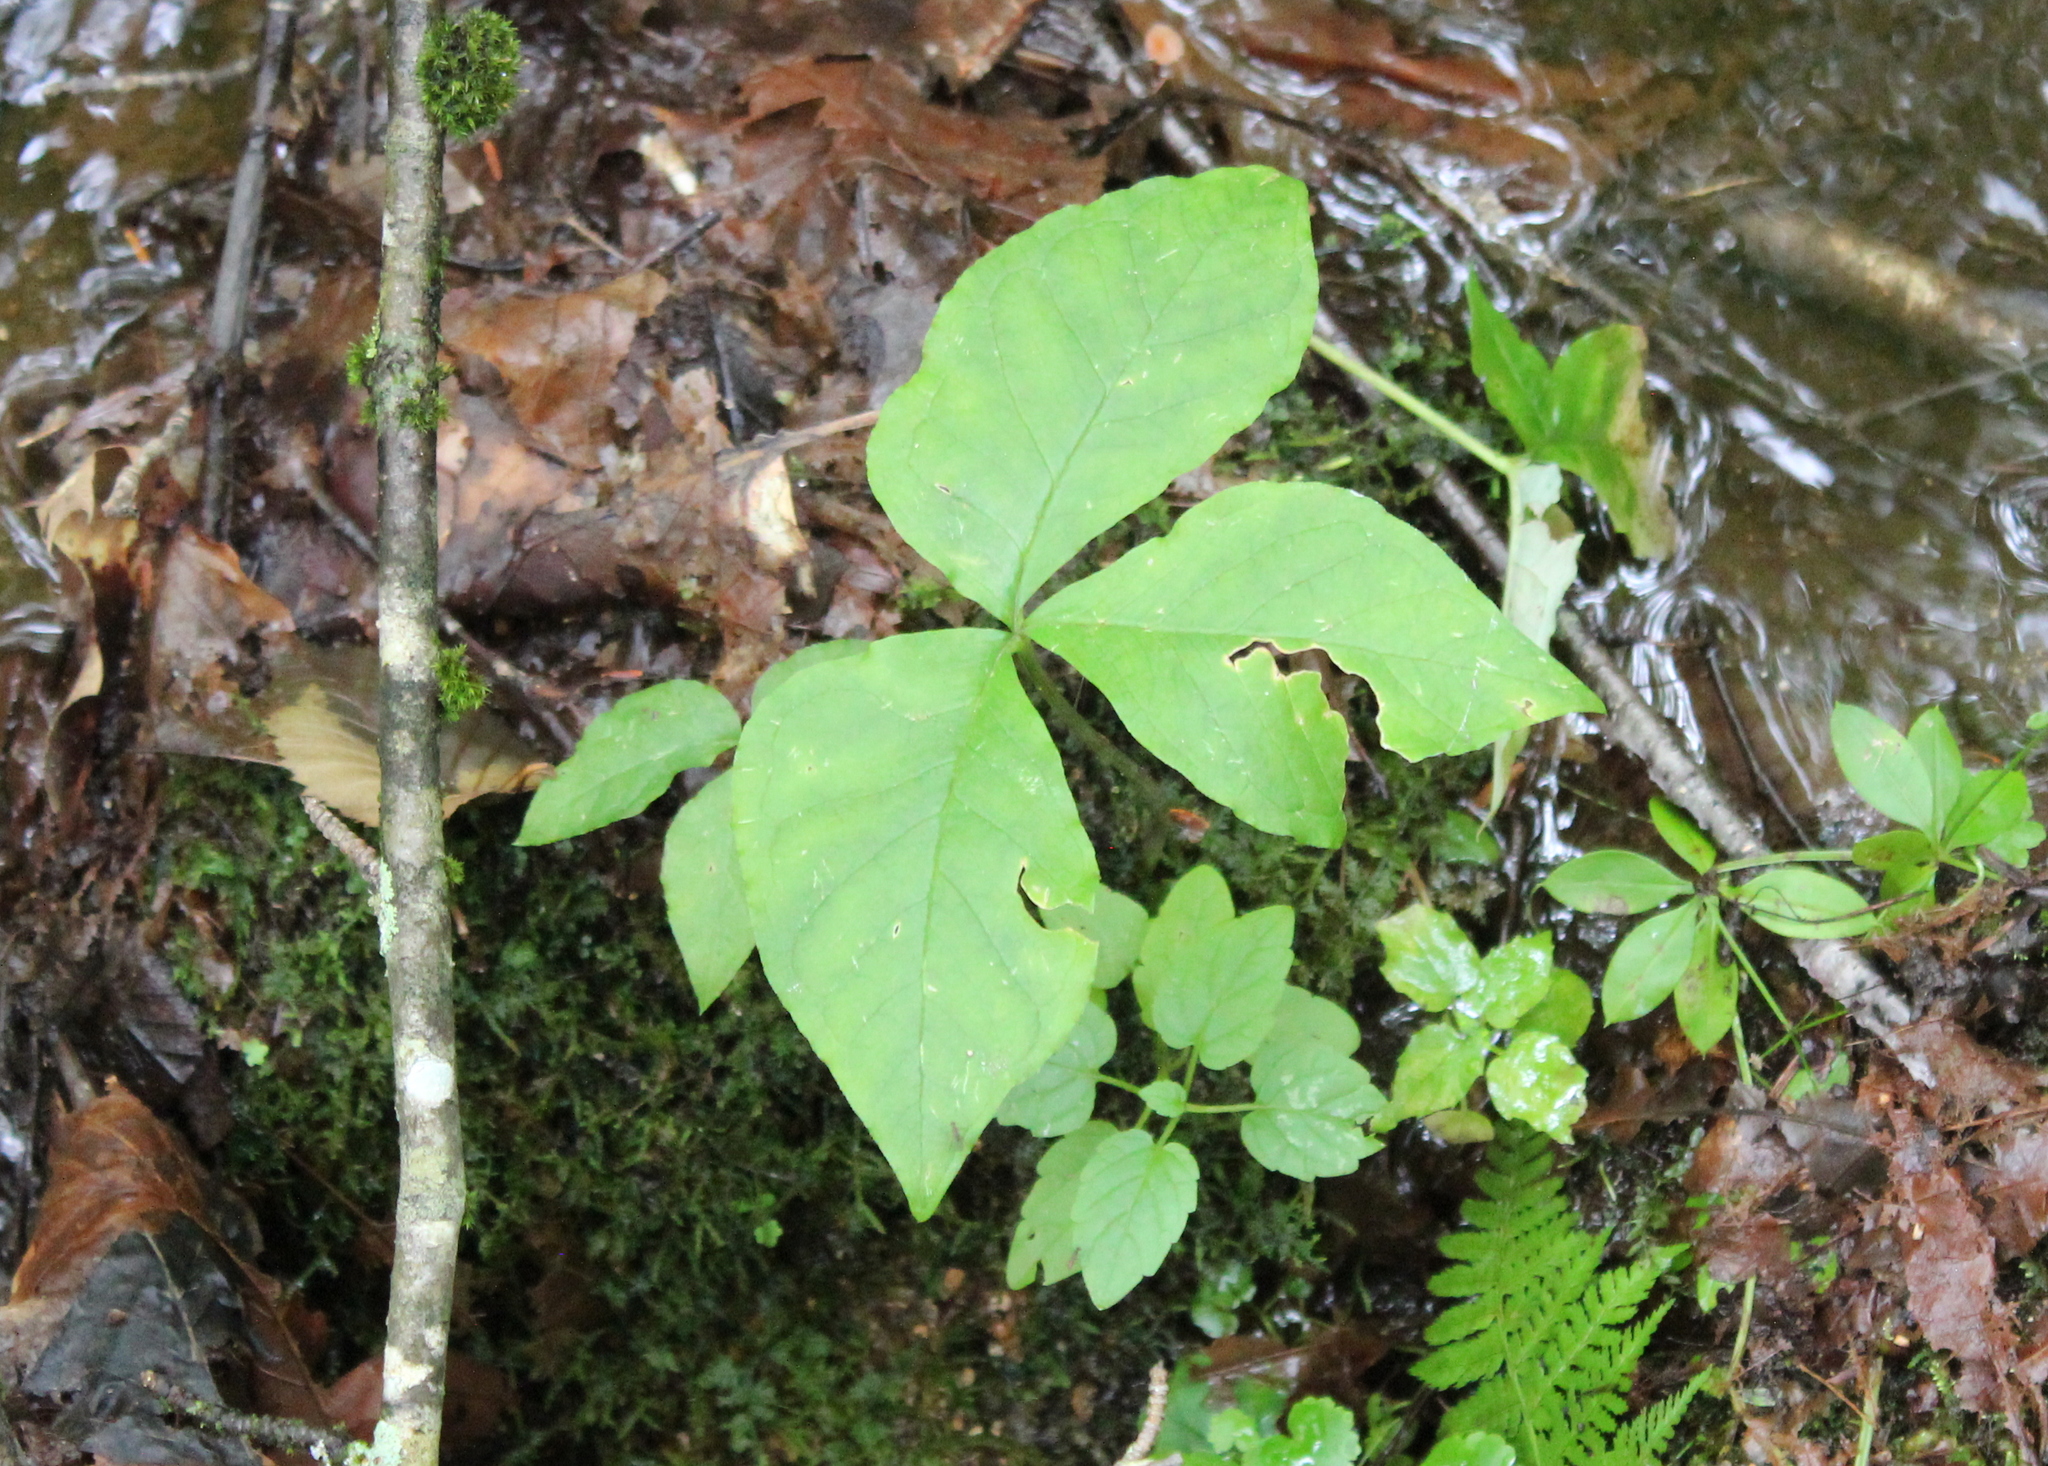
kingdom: Plantae
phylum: Tracheophyta
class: Liliopsida
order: Alismatales
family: Araceae
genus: Arisaema
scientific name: Arisaema triphyllum
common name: Jack-in-the-pulpit
